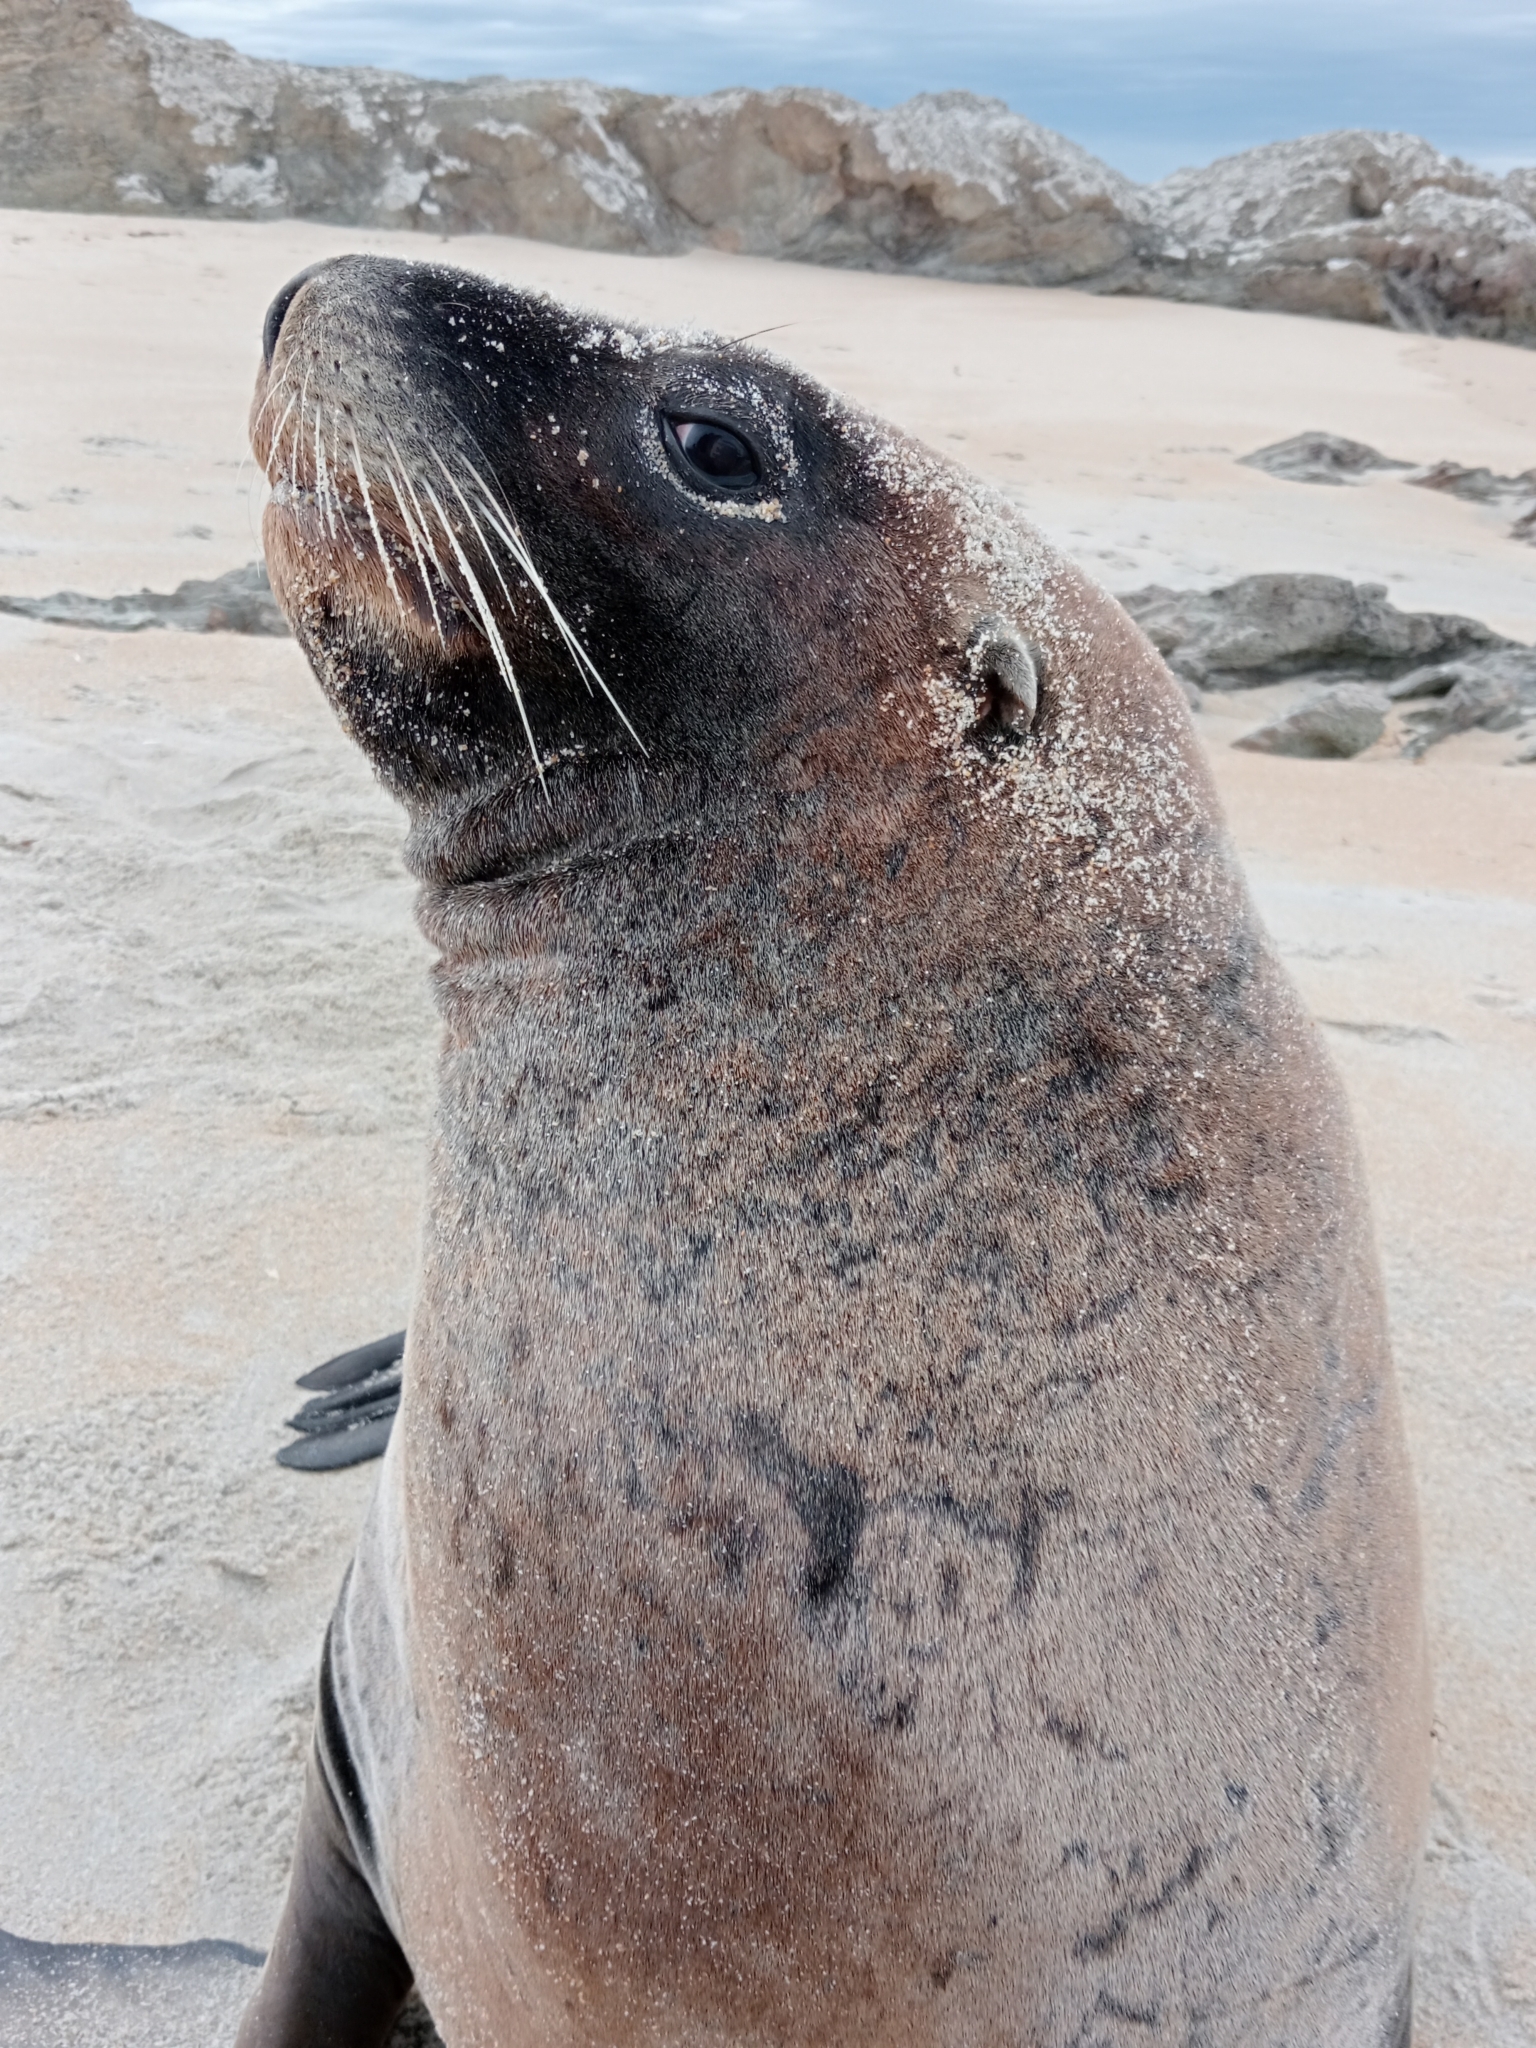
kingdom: Animalia
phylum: Chordata
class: Mammalia
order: Carnivora
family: Otariidae
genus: Phocarctos
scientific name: Phocarctos hookeri
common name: New zealand sea lion
